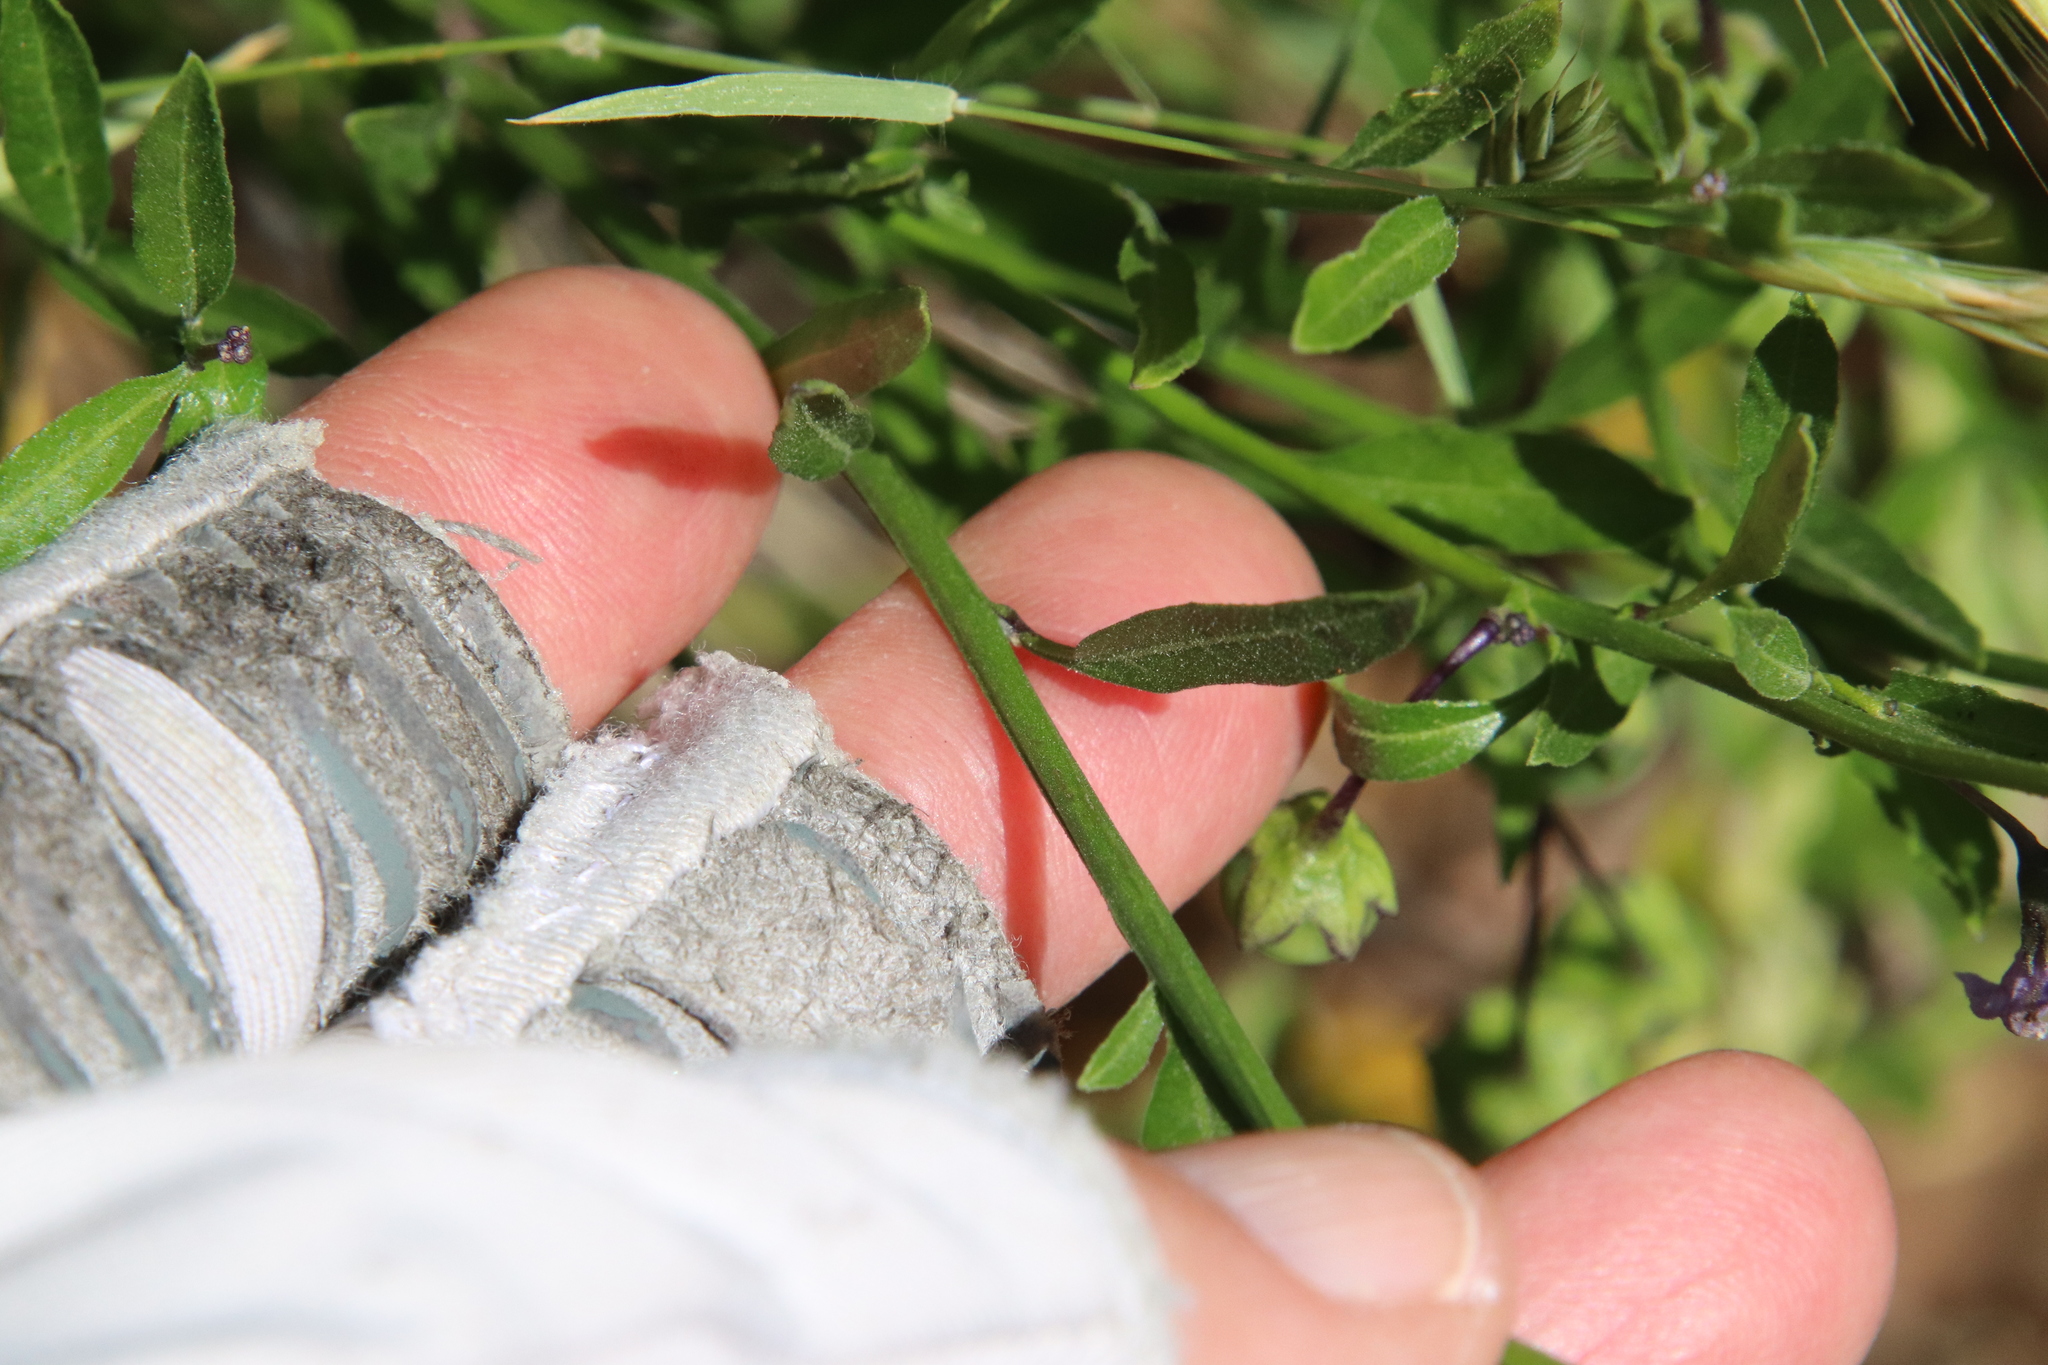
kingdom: Plantae
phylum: Tracheophyta
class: Magnoliopsida
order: Solanales
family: Solanaceae
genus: Solanum
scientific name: Solanum umbelliferum
